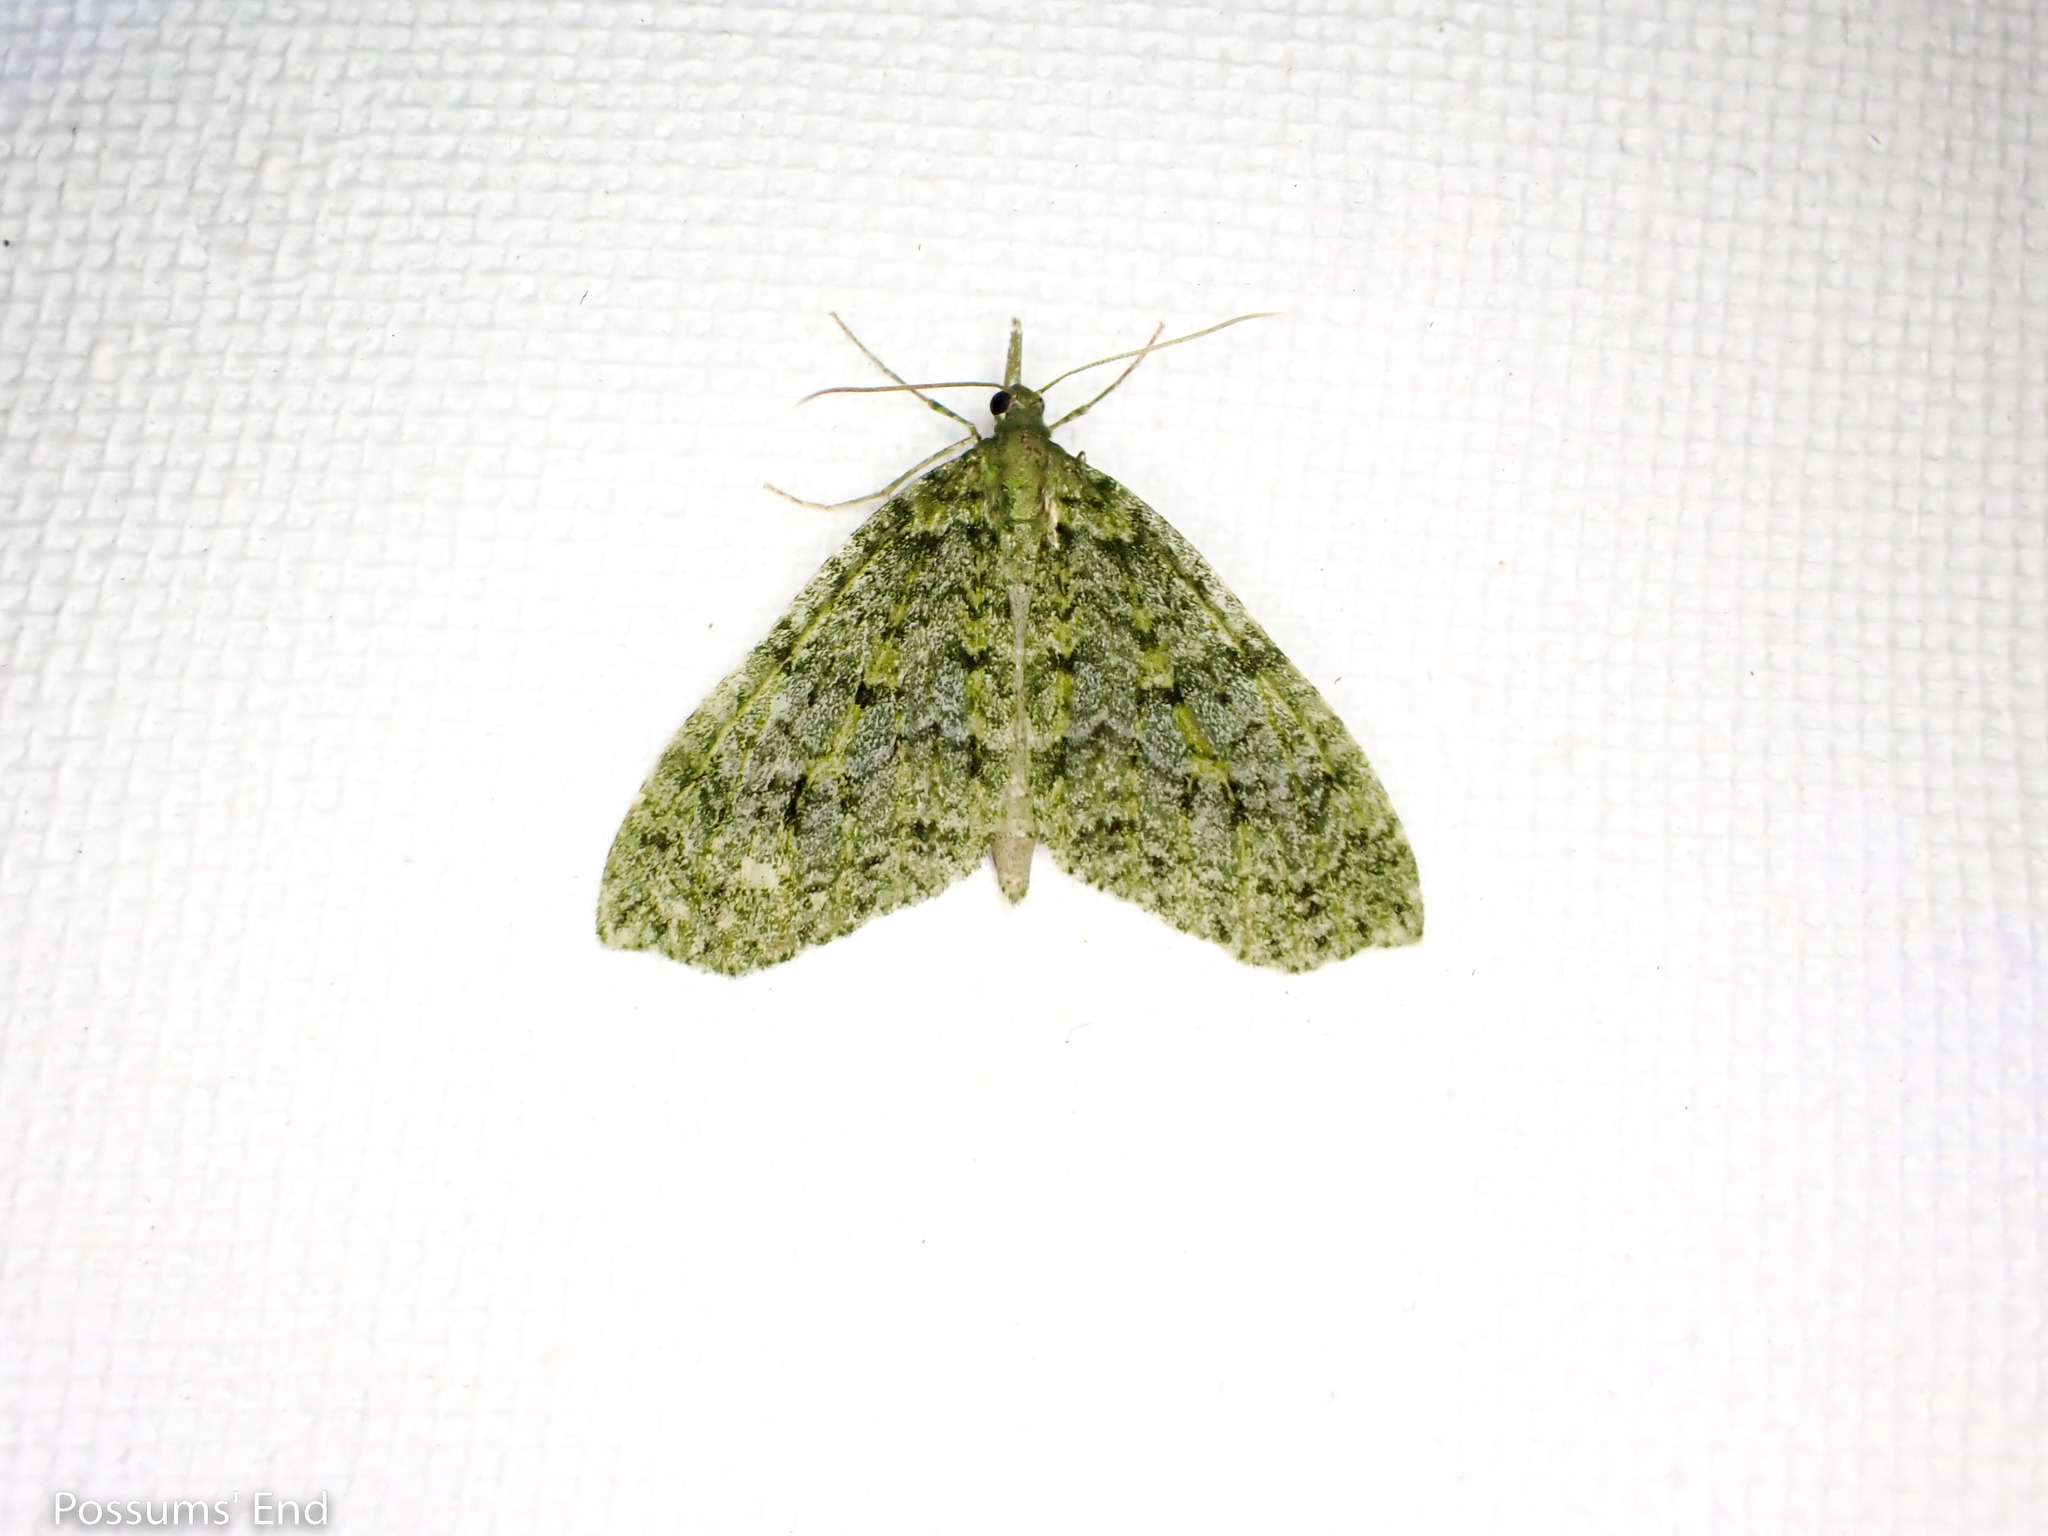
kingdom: Animalia
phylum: Arthropoda
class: Insecta
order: Lepidoptera
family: Geometridae
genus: Tatosoma
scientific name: Tatosoma monoviridisata
